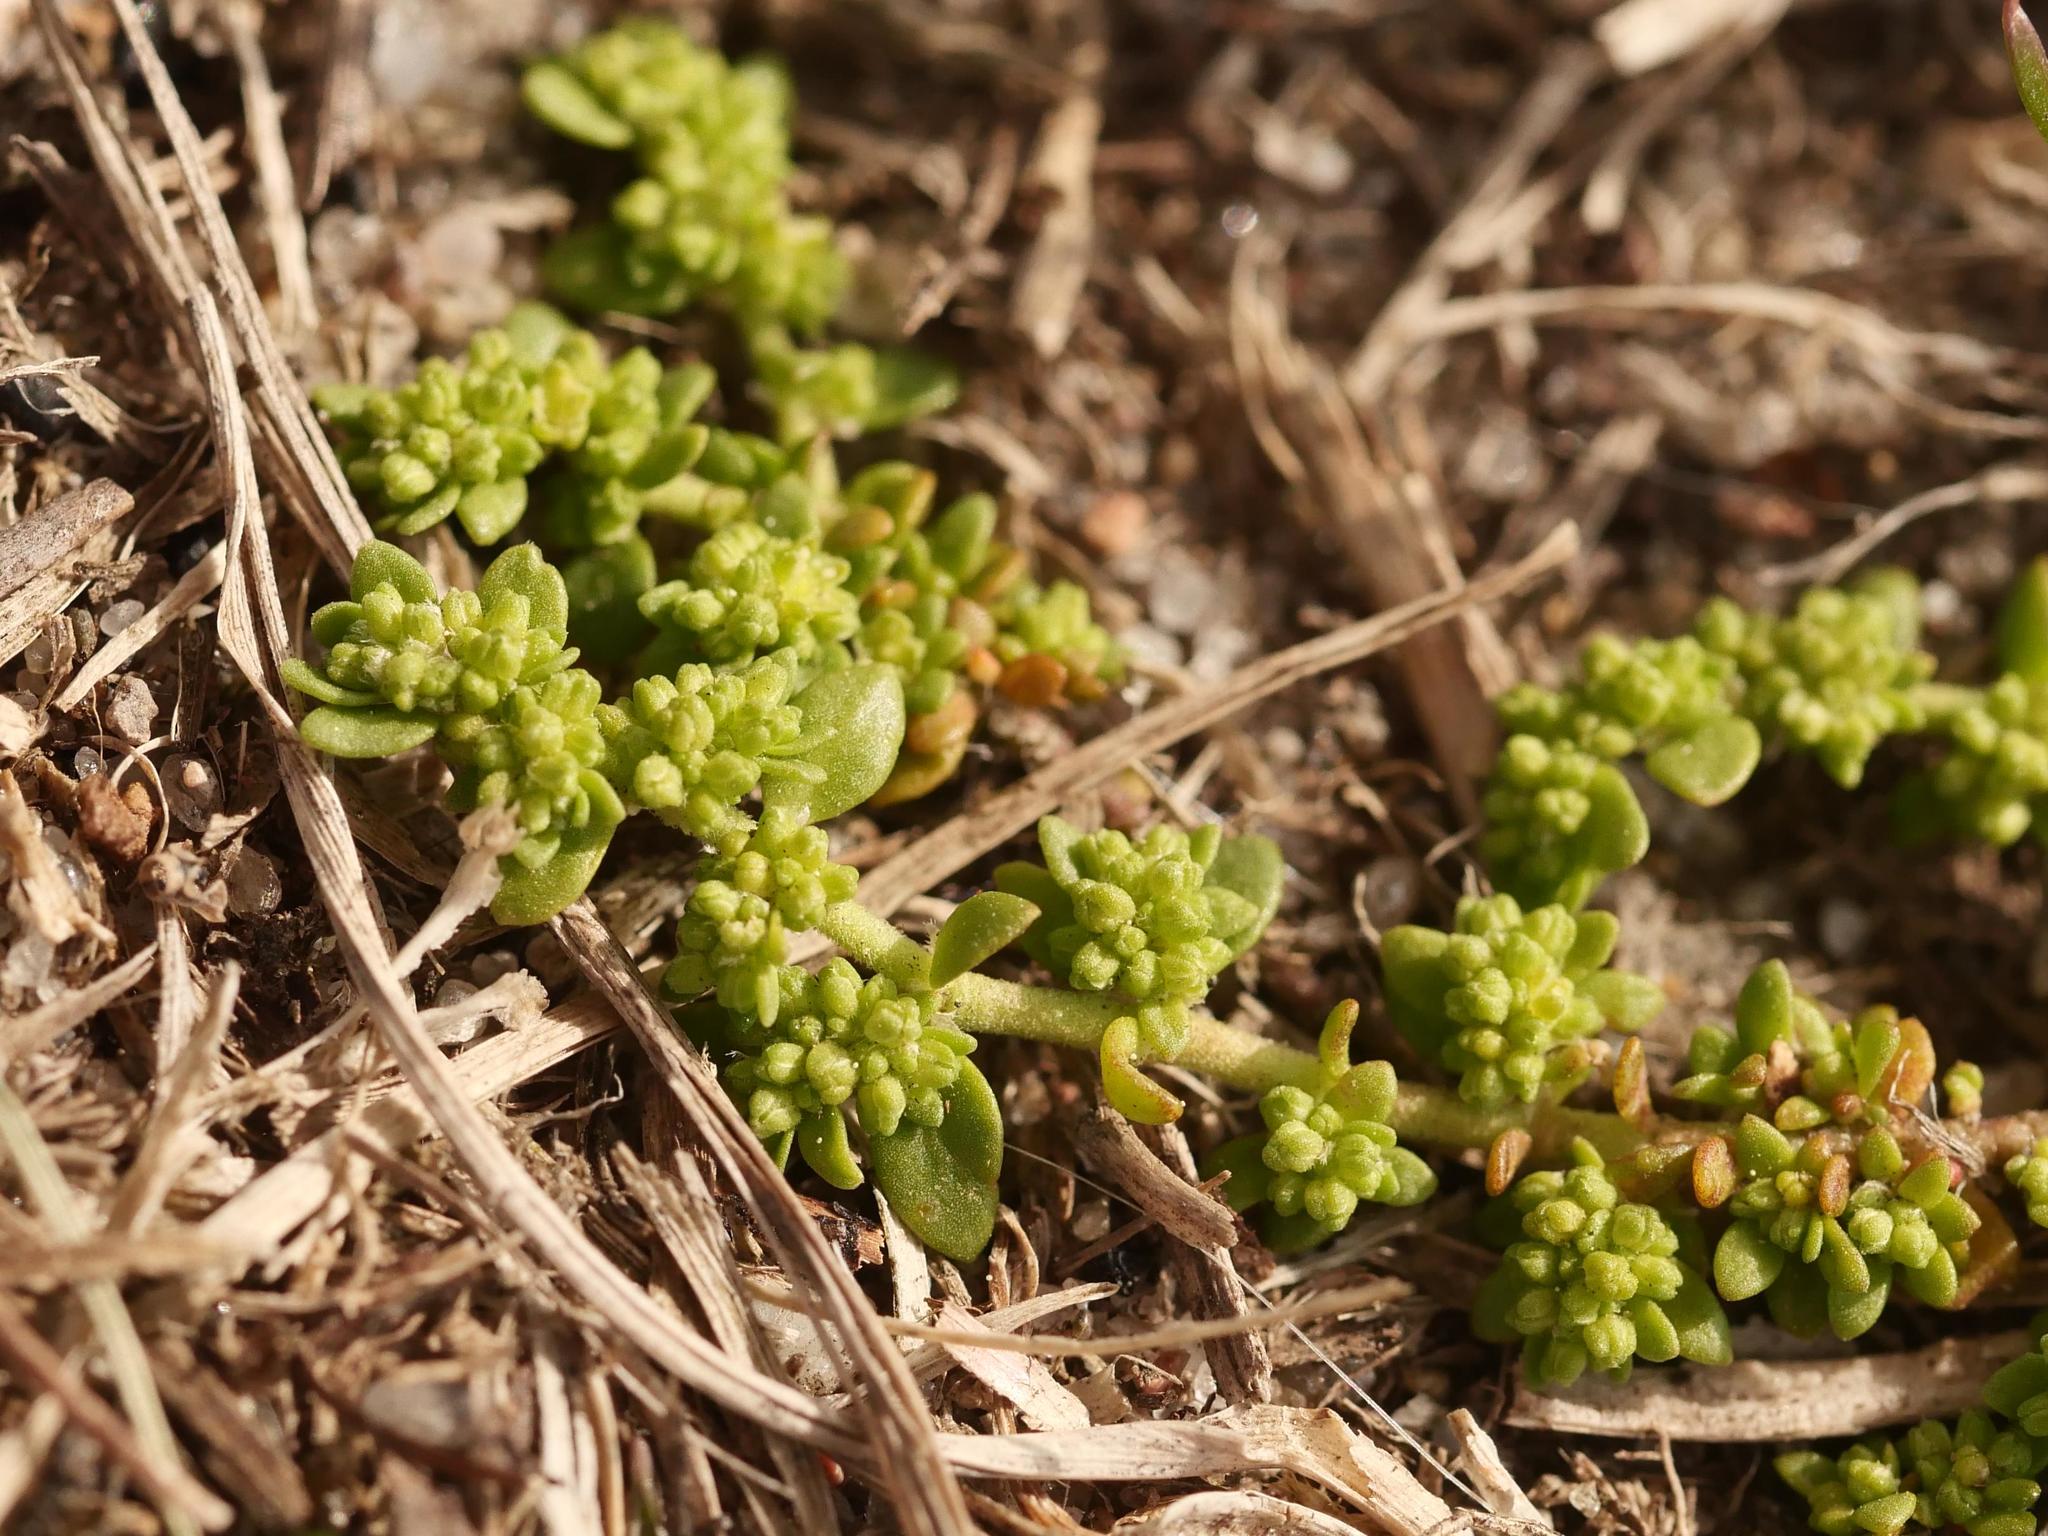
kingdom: Plantae
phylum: Tracheophyta
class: Magnoliopsida
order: Caryophyllales
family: Caryophyllaceae
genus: Herniaria
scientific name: Herniaria glabra
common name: Smooth rupturewort
